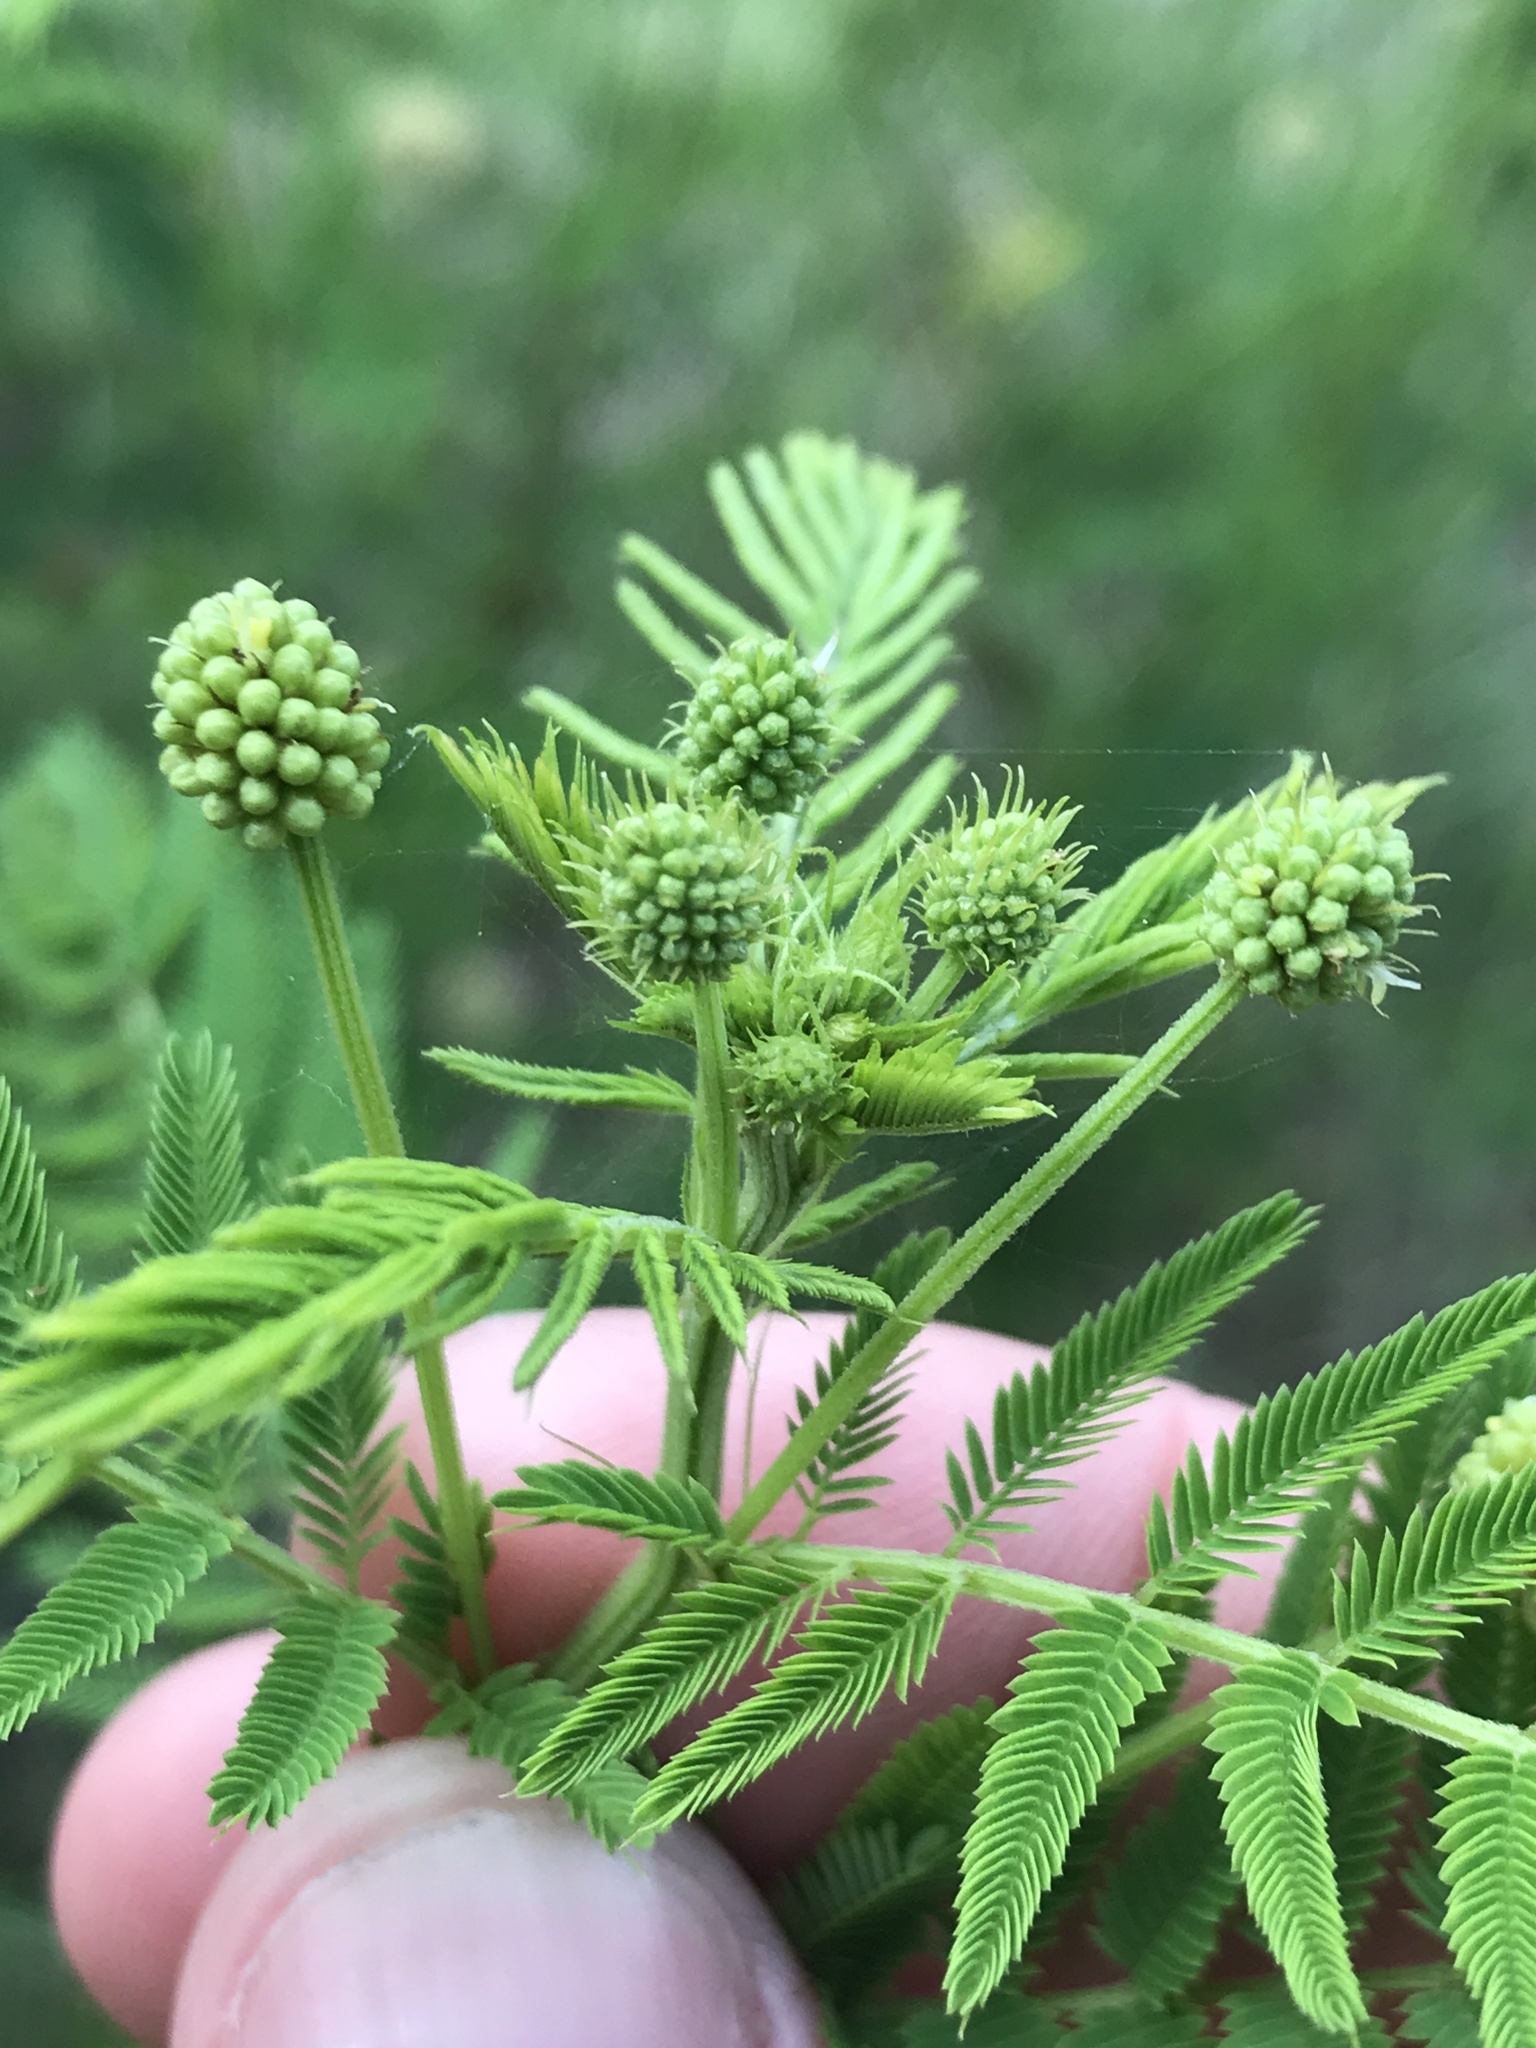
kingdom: Plantae
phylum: Tracheophyta
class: Magnoliopsida
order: Fabales
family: Fabaceae
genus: Desmanthus
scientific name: Desmanthus illinoensis
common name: Illinois bundle-flower
